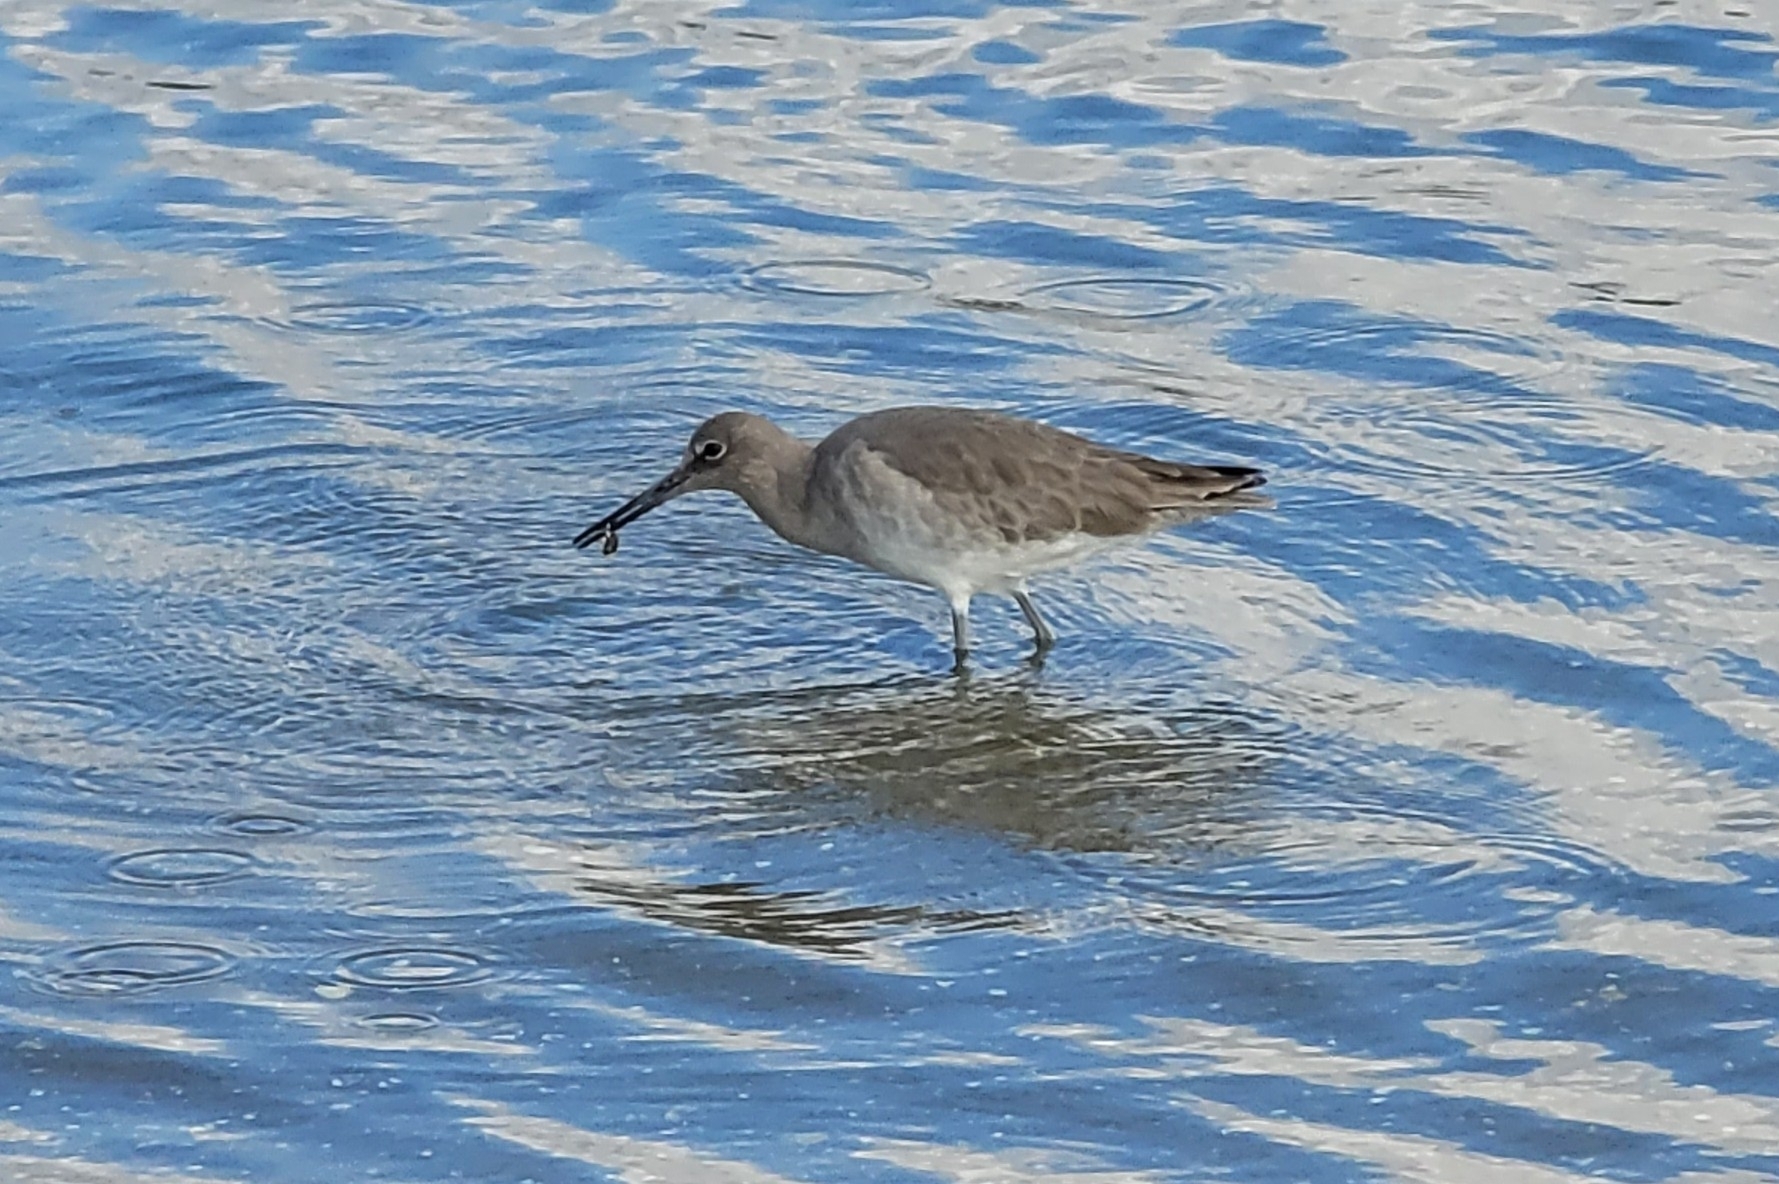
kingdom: Animalia
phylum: Chordata
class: Aves
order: Charadriiformes
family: Scolopacidae
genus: Tringa
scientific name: Tringa semipalmata
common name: Willet
